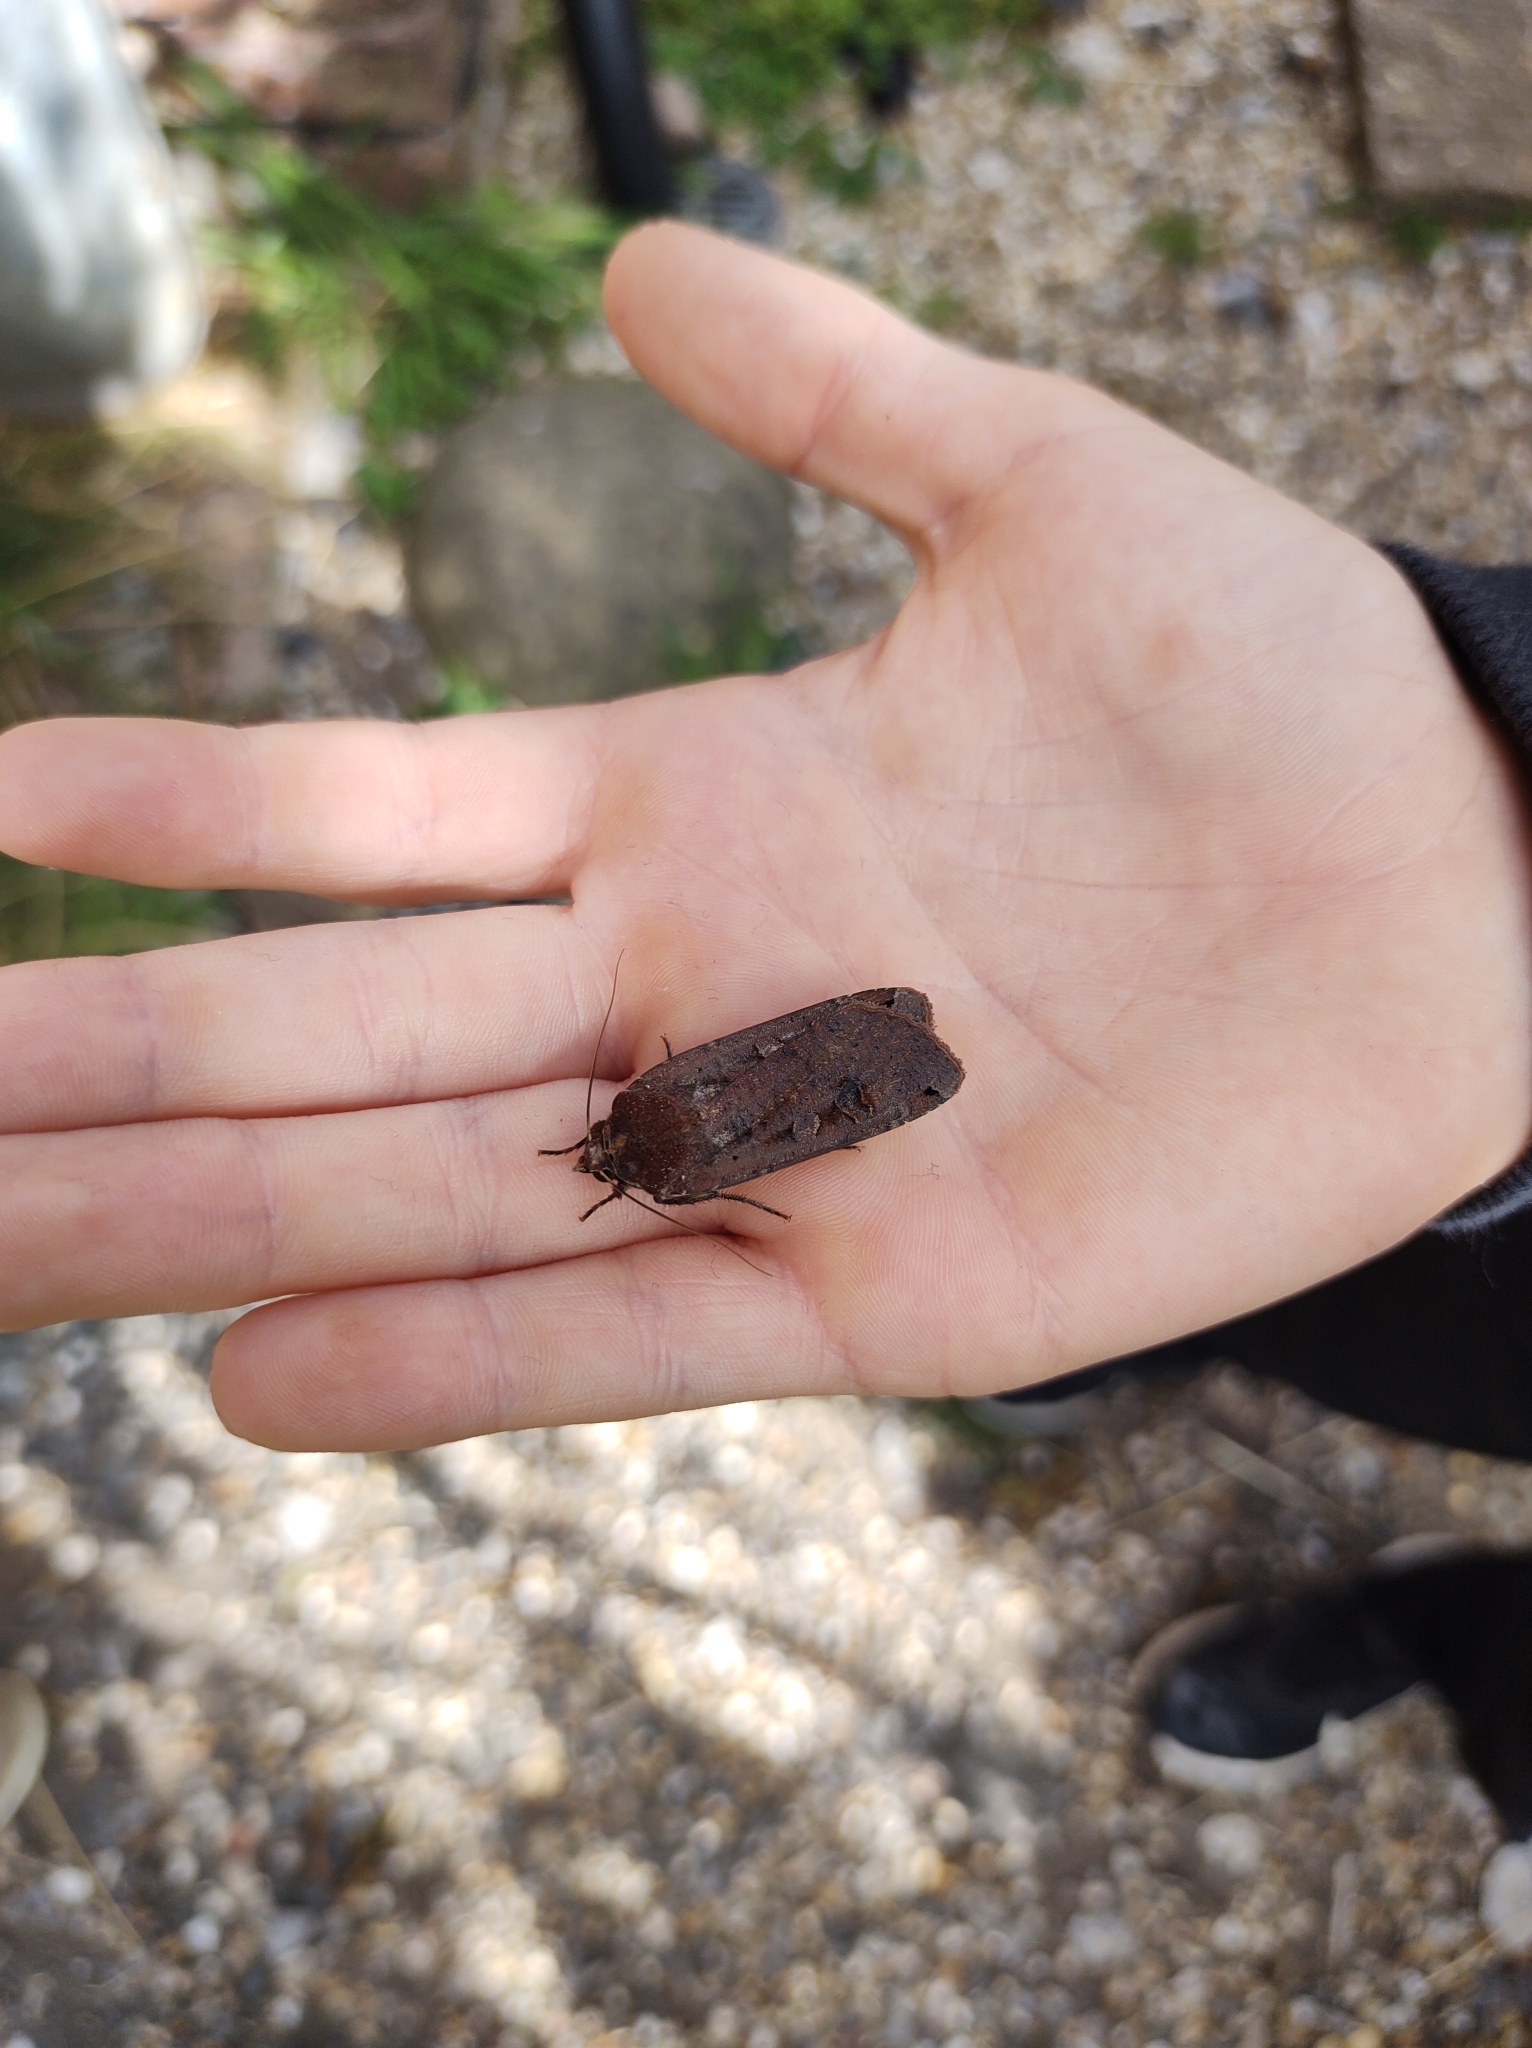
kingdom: Animalia
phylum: Arthropoda
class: Insecta
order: Lepidoptera
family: Noctuidae
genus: Noctua
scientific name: Noctua pronuba
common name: Large yellow underwing
